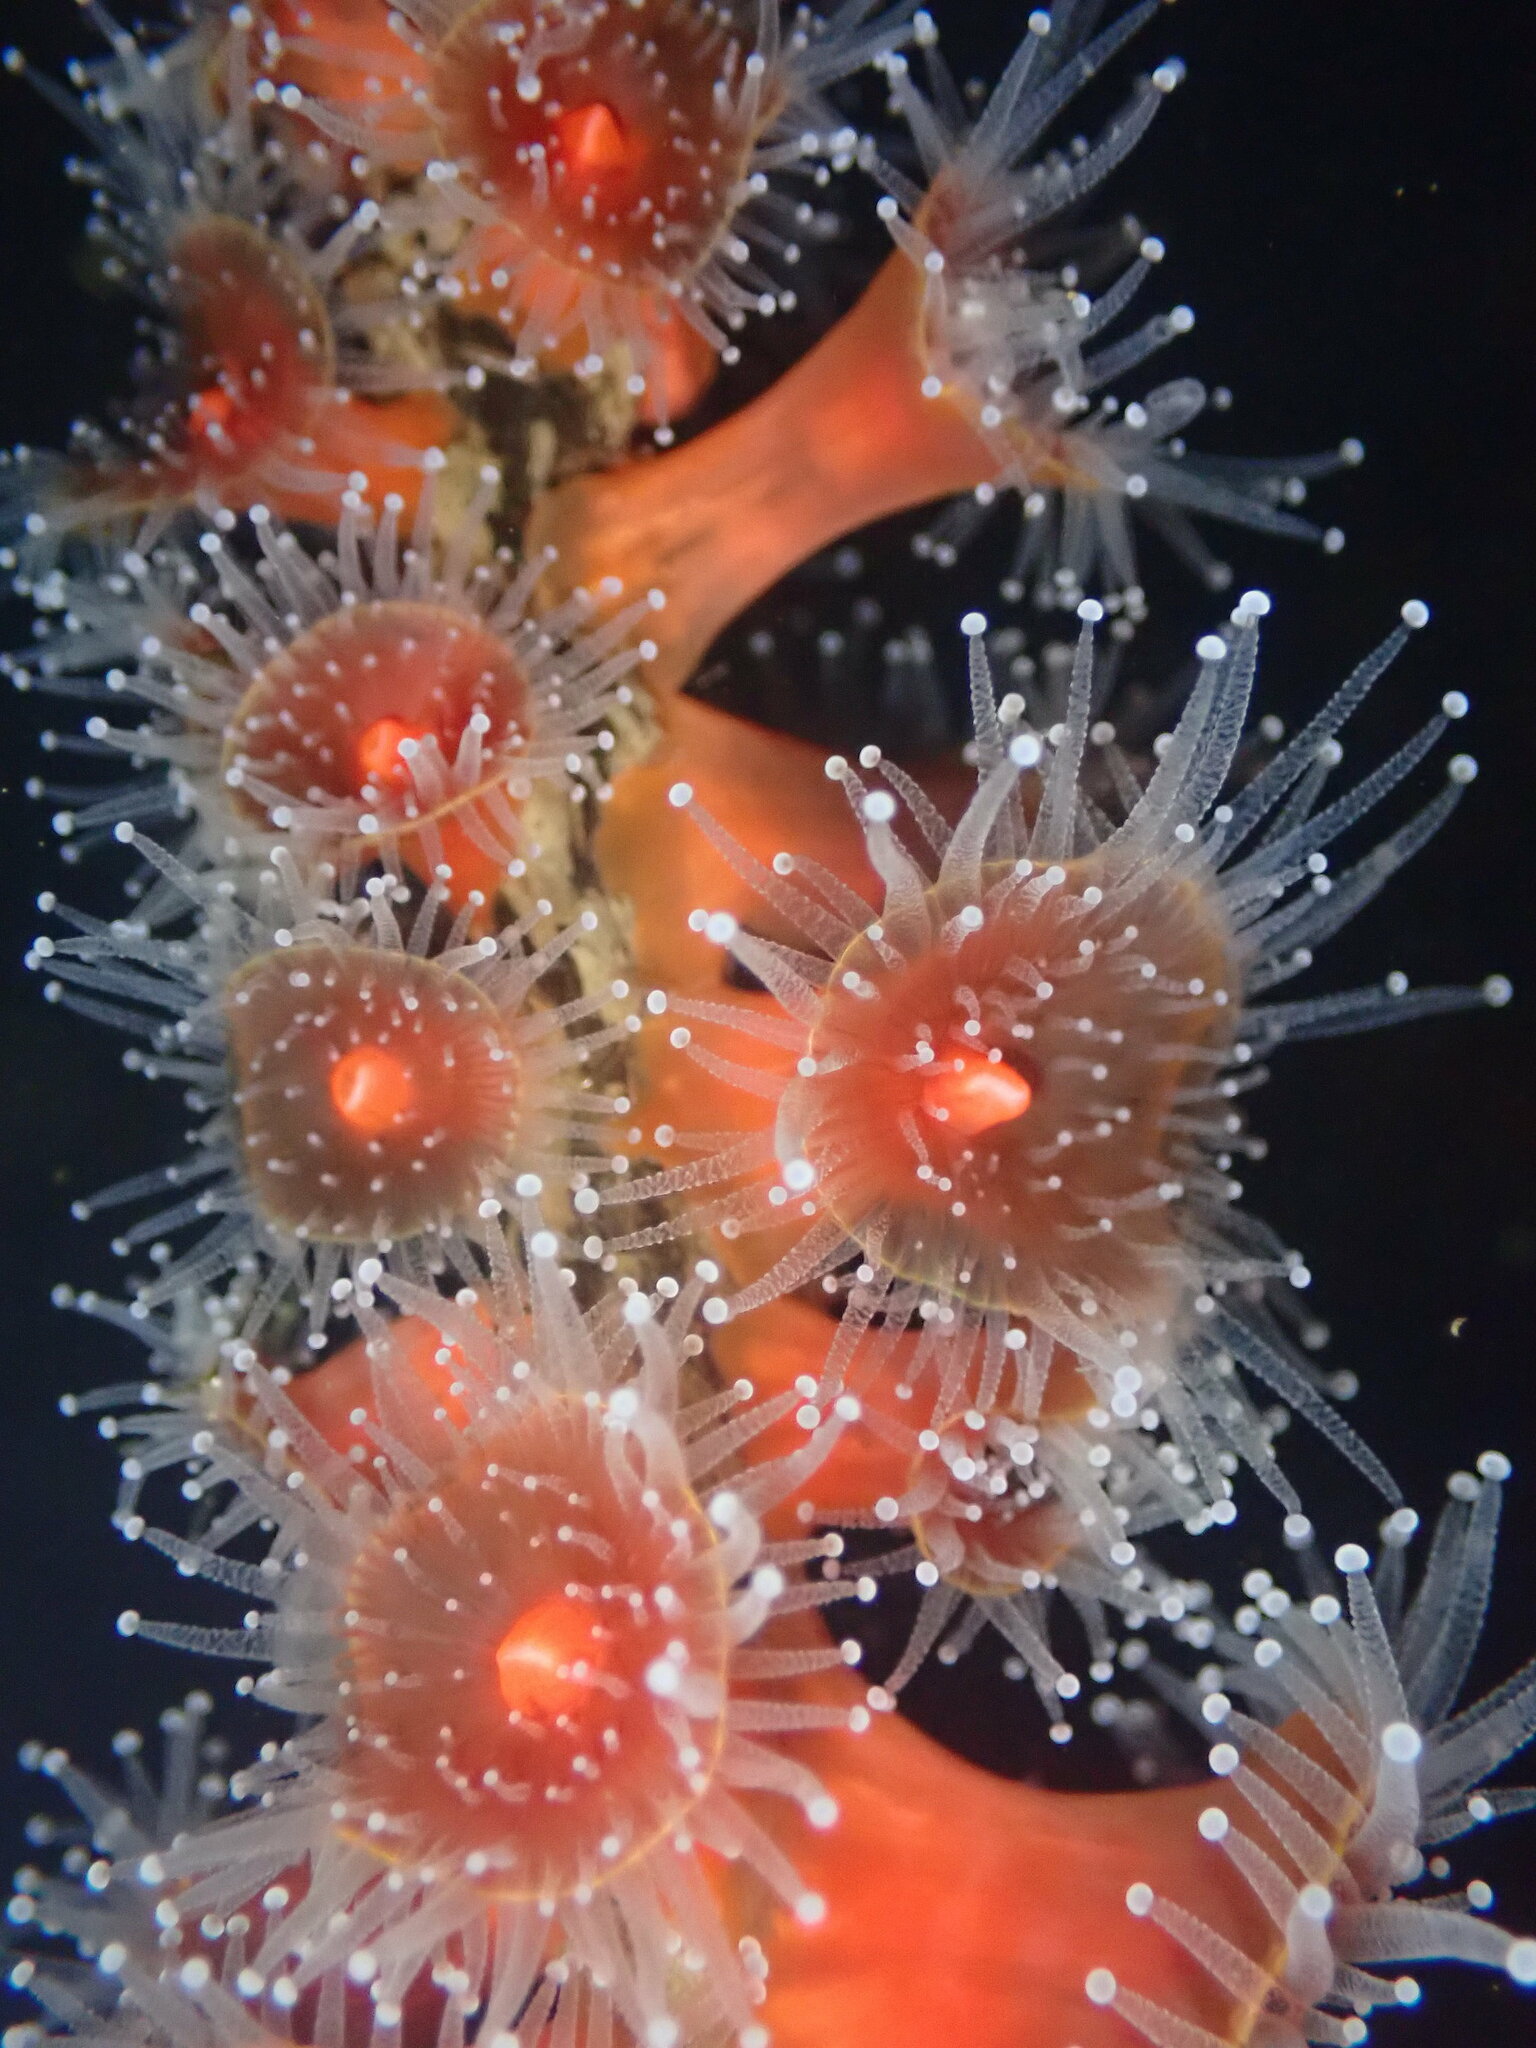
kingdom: Animalia
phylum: Cnidaria
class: Anthozoa
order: Corallimorpharia
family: Corallimorphidae
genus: Corynactis
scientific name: Corynactis californica
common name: Strawberry corallimorpharian
